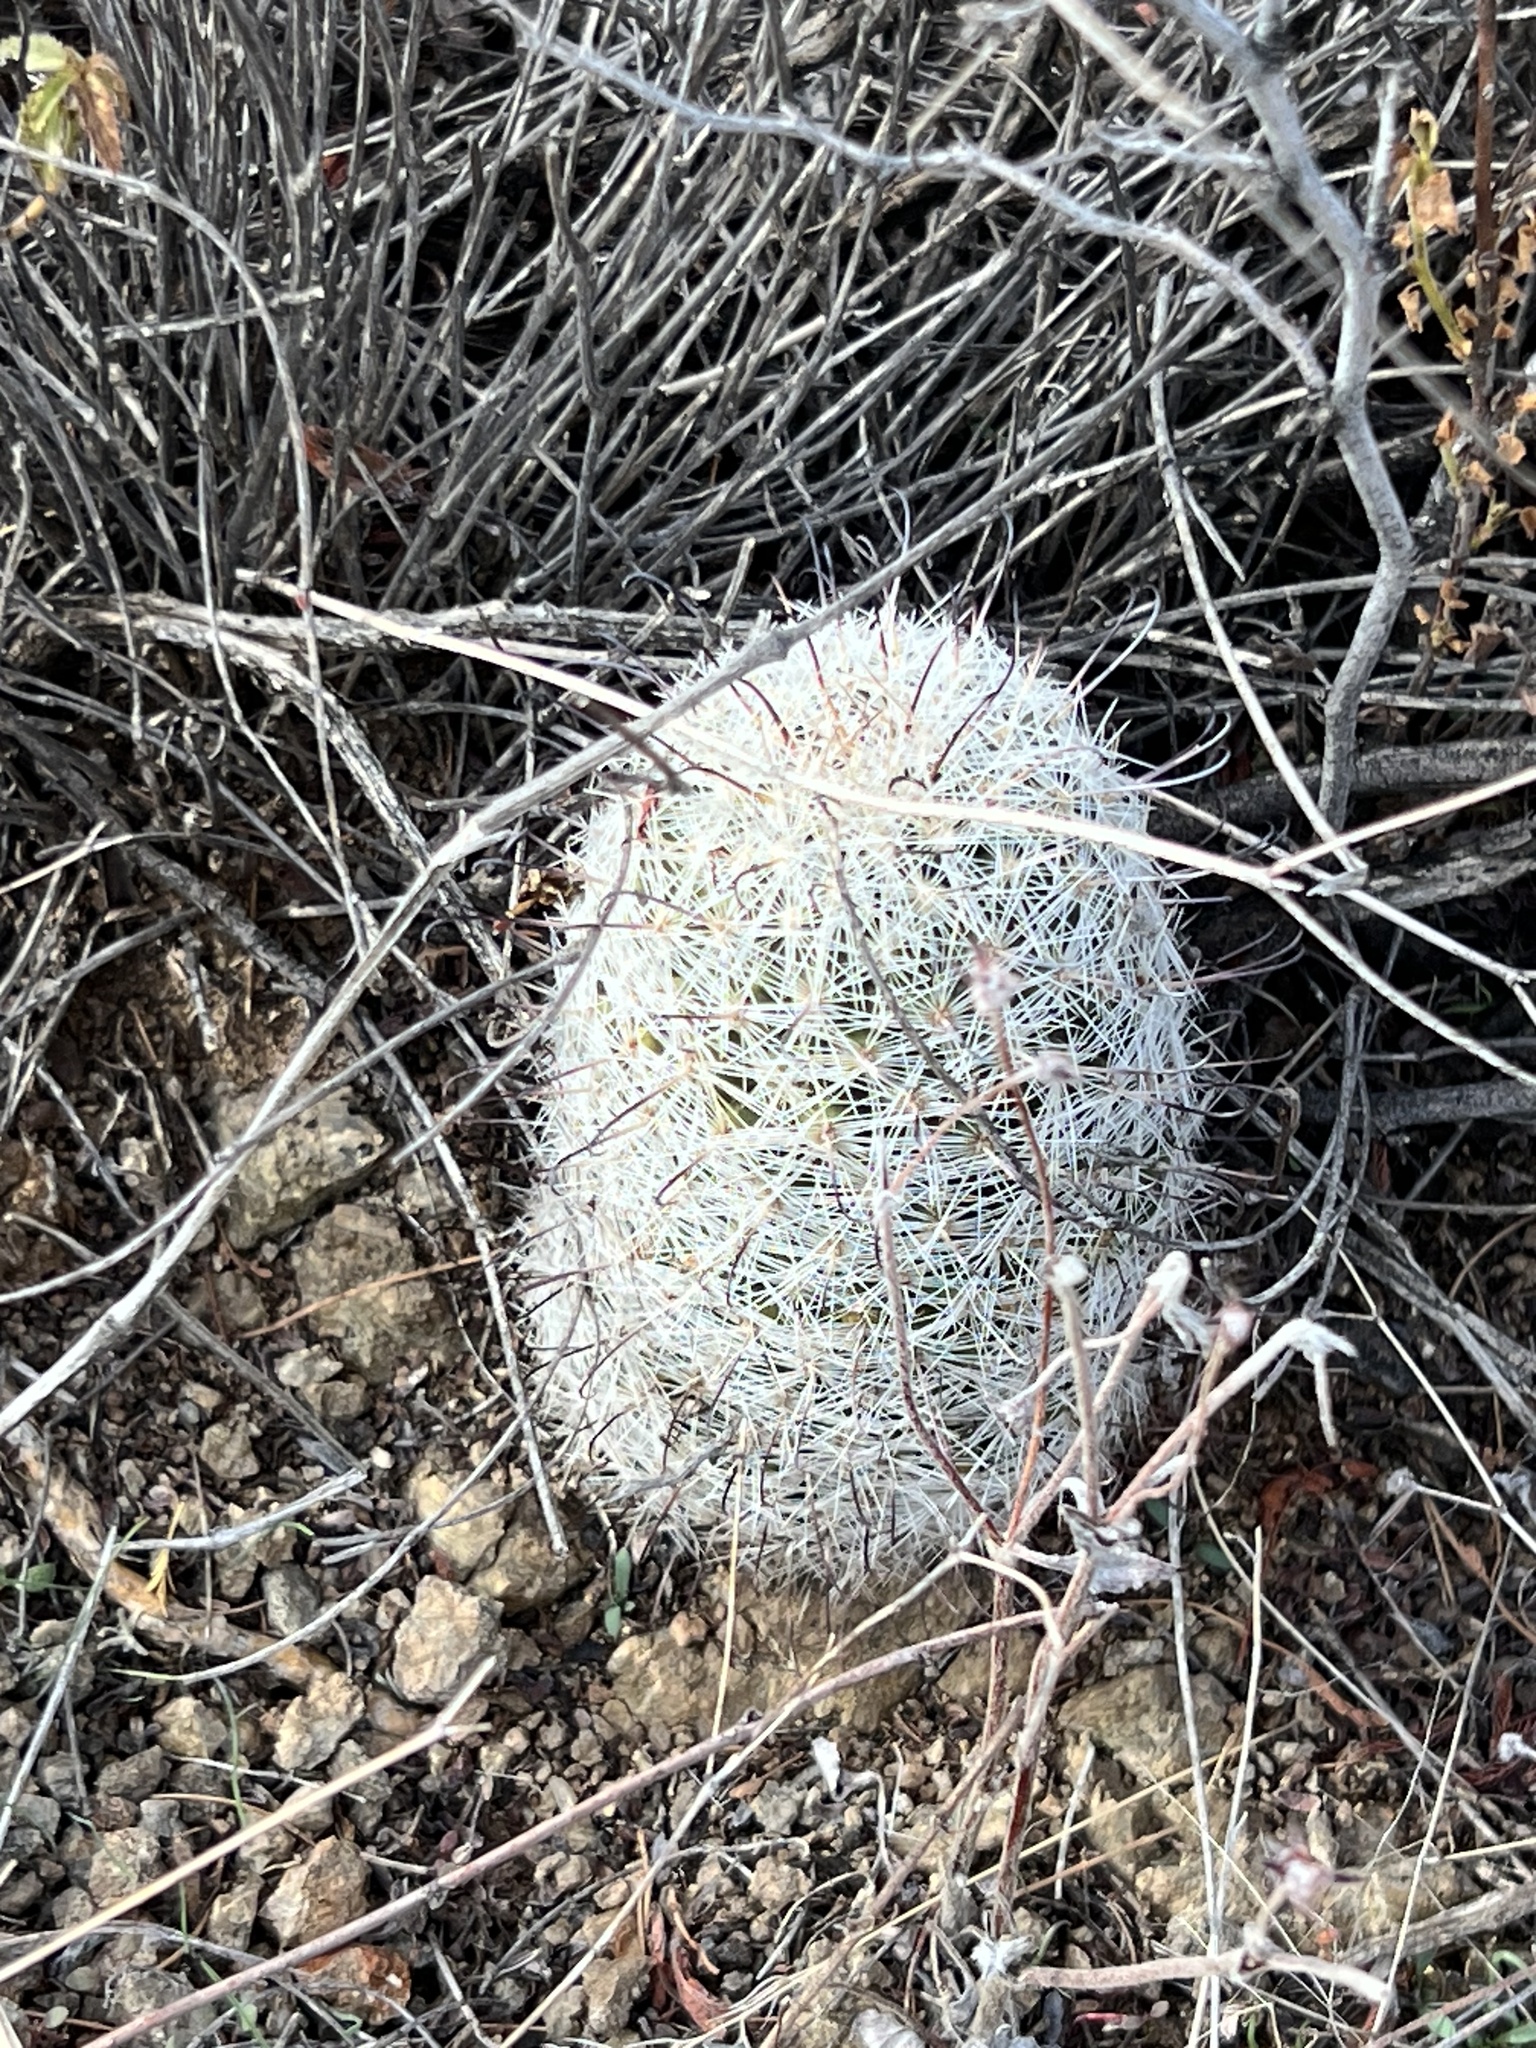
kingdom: Plantae
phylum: Tracheophyta
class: Magnoliopsida
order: Caryophyllales
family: Cactaceae
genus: Cochemiea
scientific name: Cochemiea grahamii
